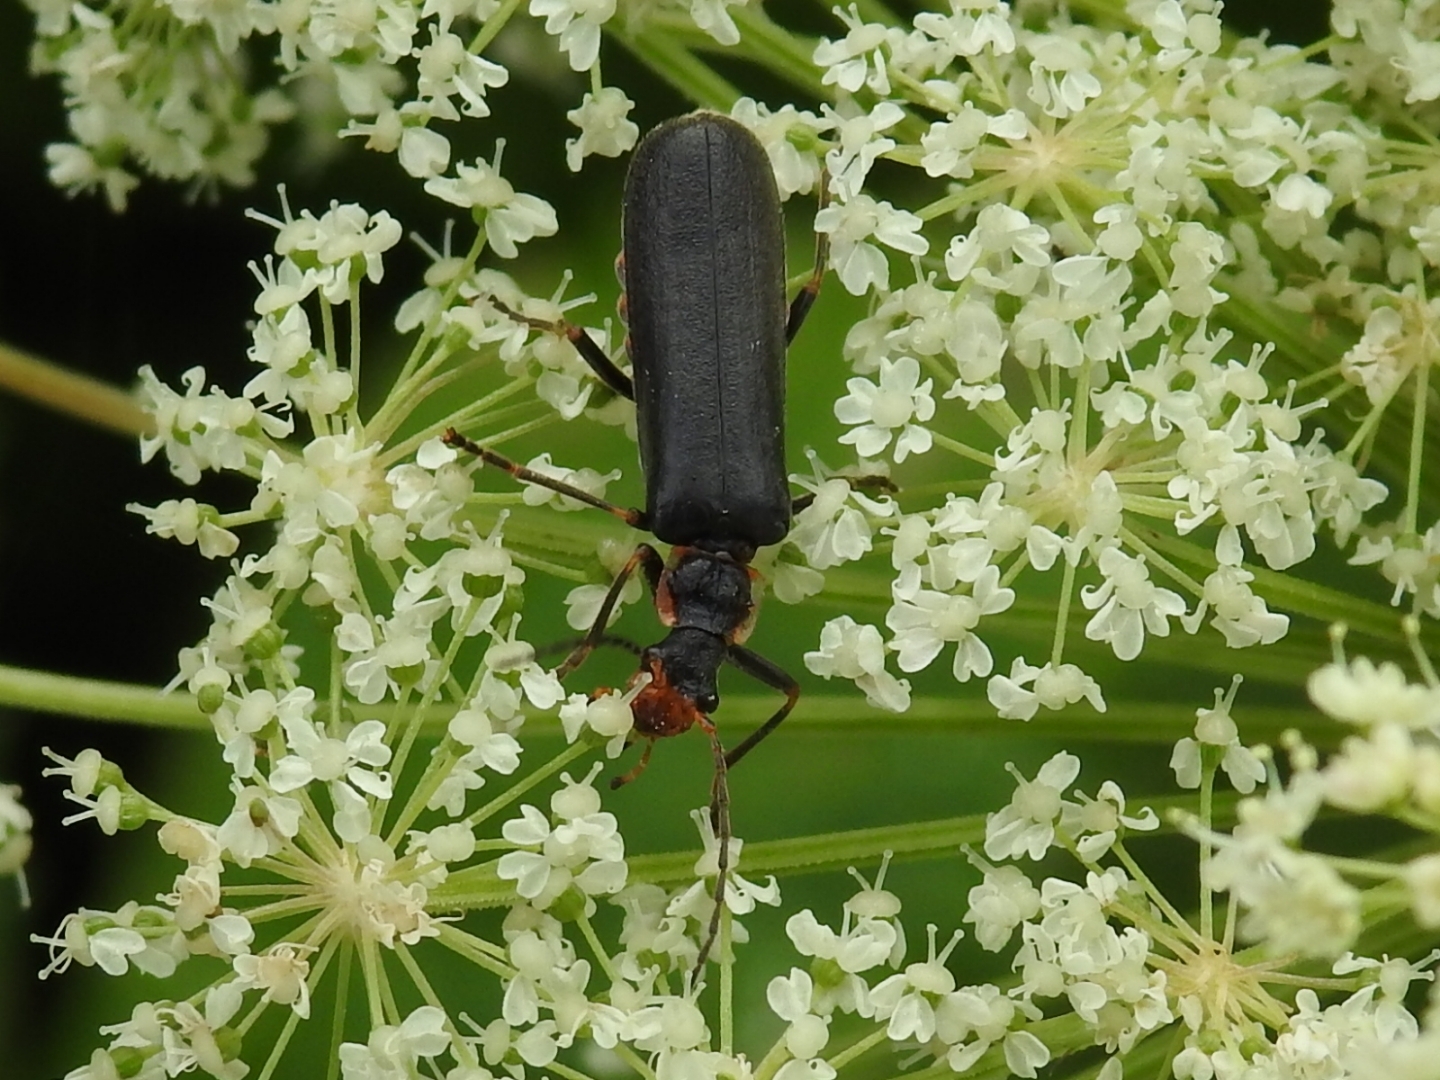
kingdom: Animalia
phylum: Arthropoda
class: Insecta
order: Coleoptera
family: Cantharidae
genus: Podabrus
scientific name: Podabrus alpinus
